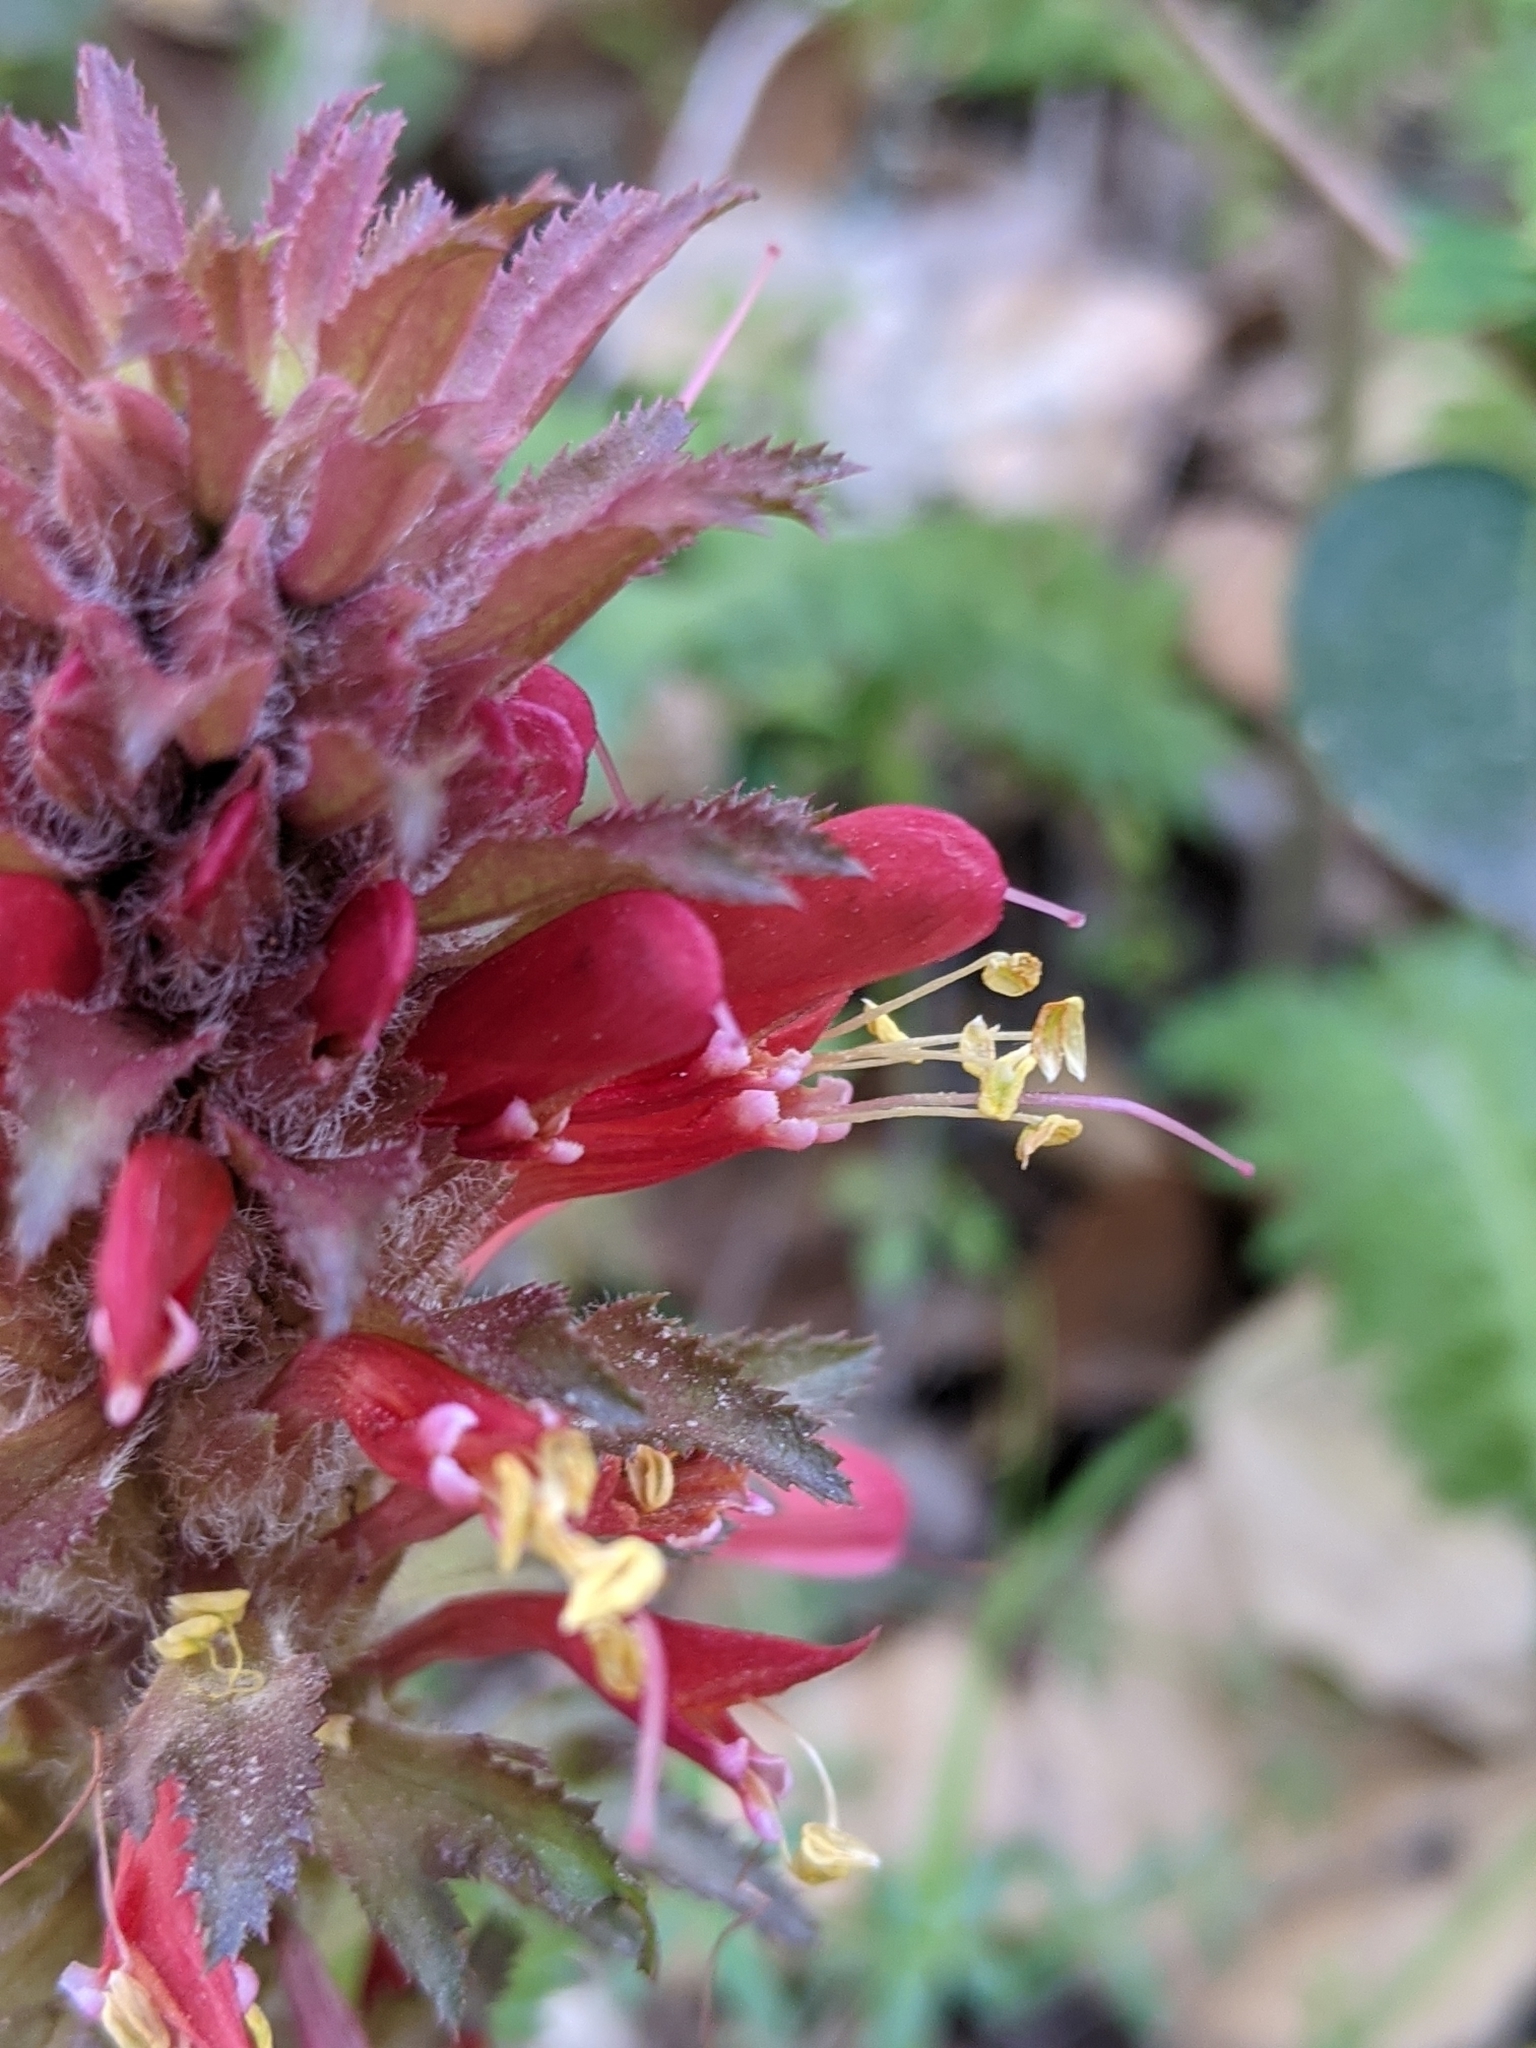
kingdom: Plantae
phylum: Tracheophyta
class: Magnoliopsida
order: Lamiales
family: Orobanchaceae
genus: Pedicularis
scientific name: Pedicularis densiflora
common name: Indian warrior
